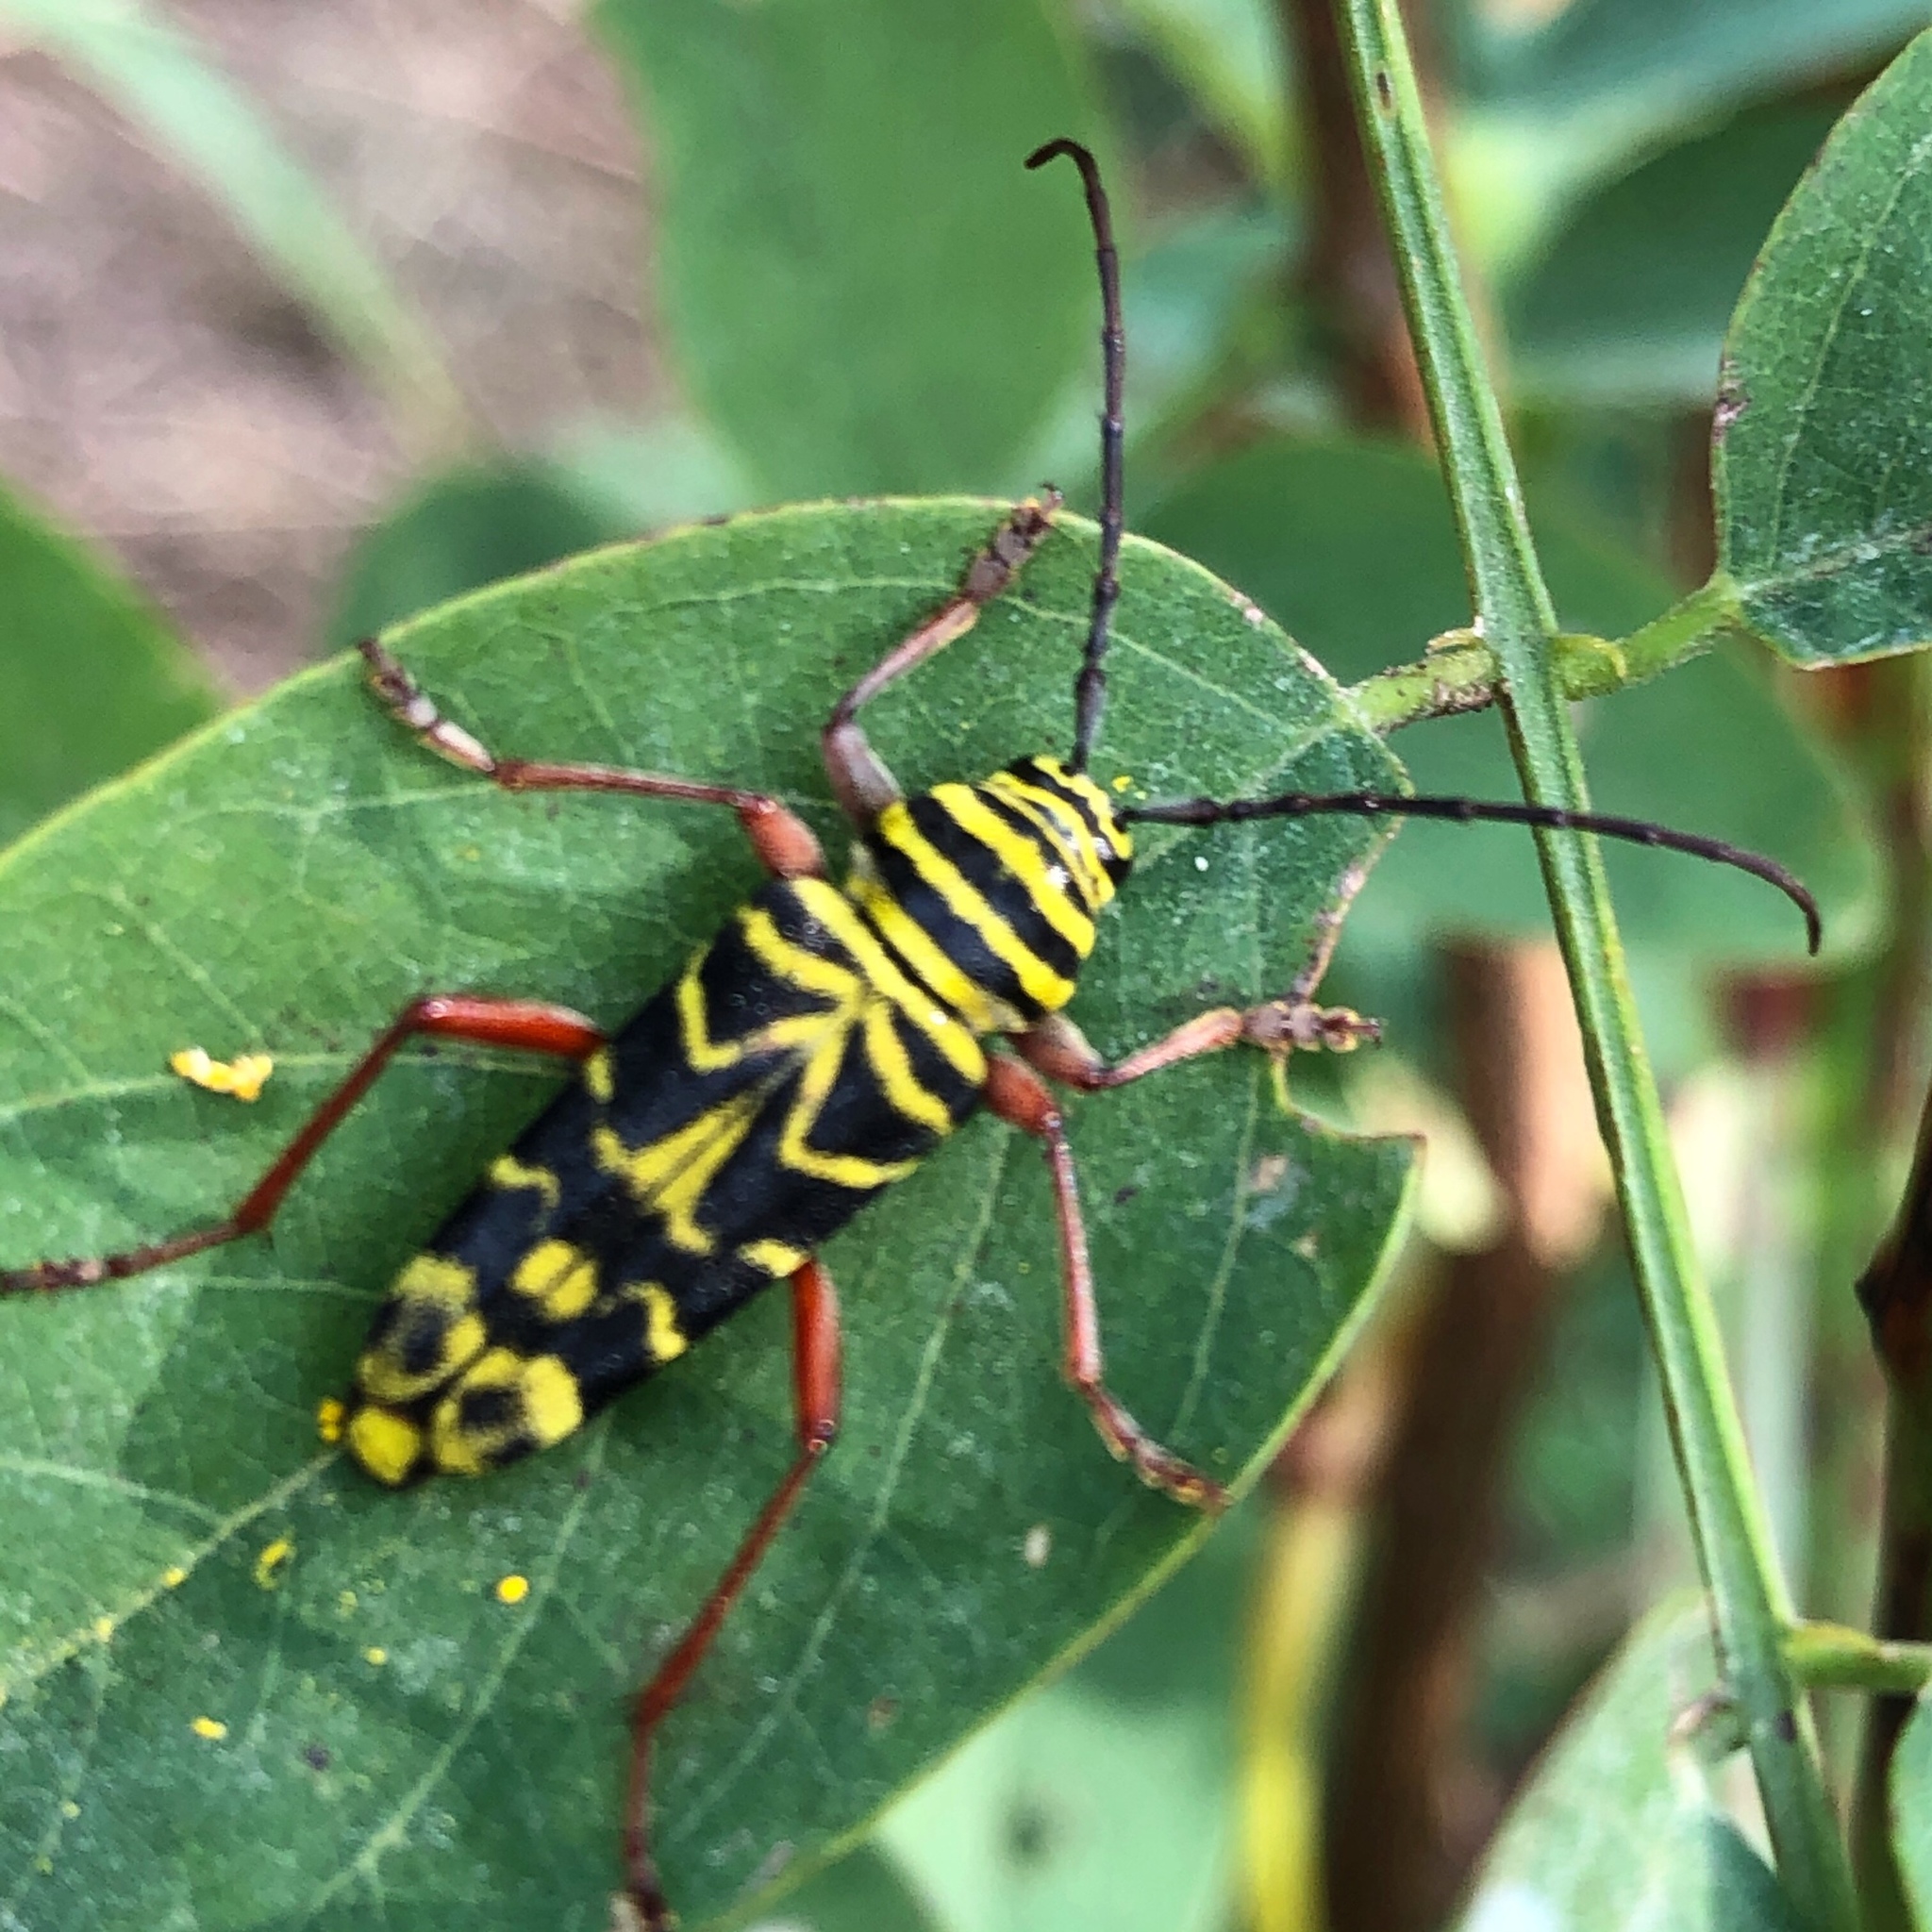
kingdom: Animalia
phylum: Arthropoda
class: Insecta
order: Coleoptera
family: Cerambycidae
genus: Megacyllene
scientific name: Megacyllene robiniae
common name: Locust borer
